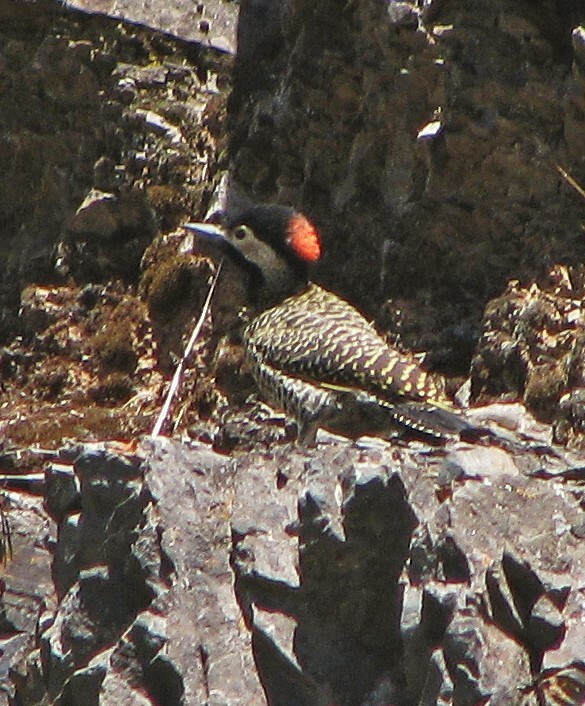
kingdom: Animalia
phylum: Chordata
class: Aves
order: Piciformes
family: Picidae
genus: Colaptes
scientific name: Colaptes melanochloros
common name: Green-barred woodpecker
